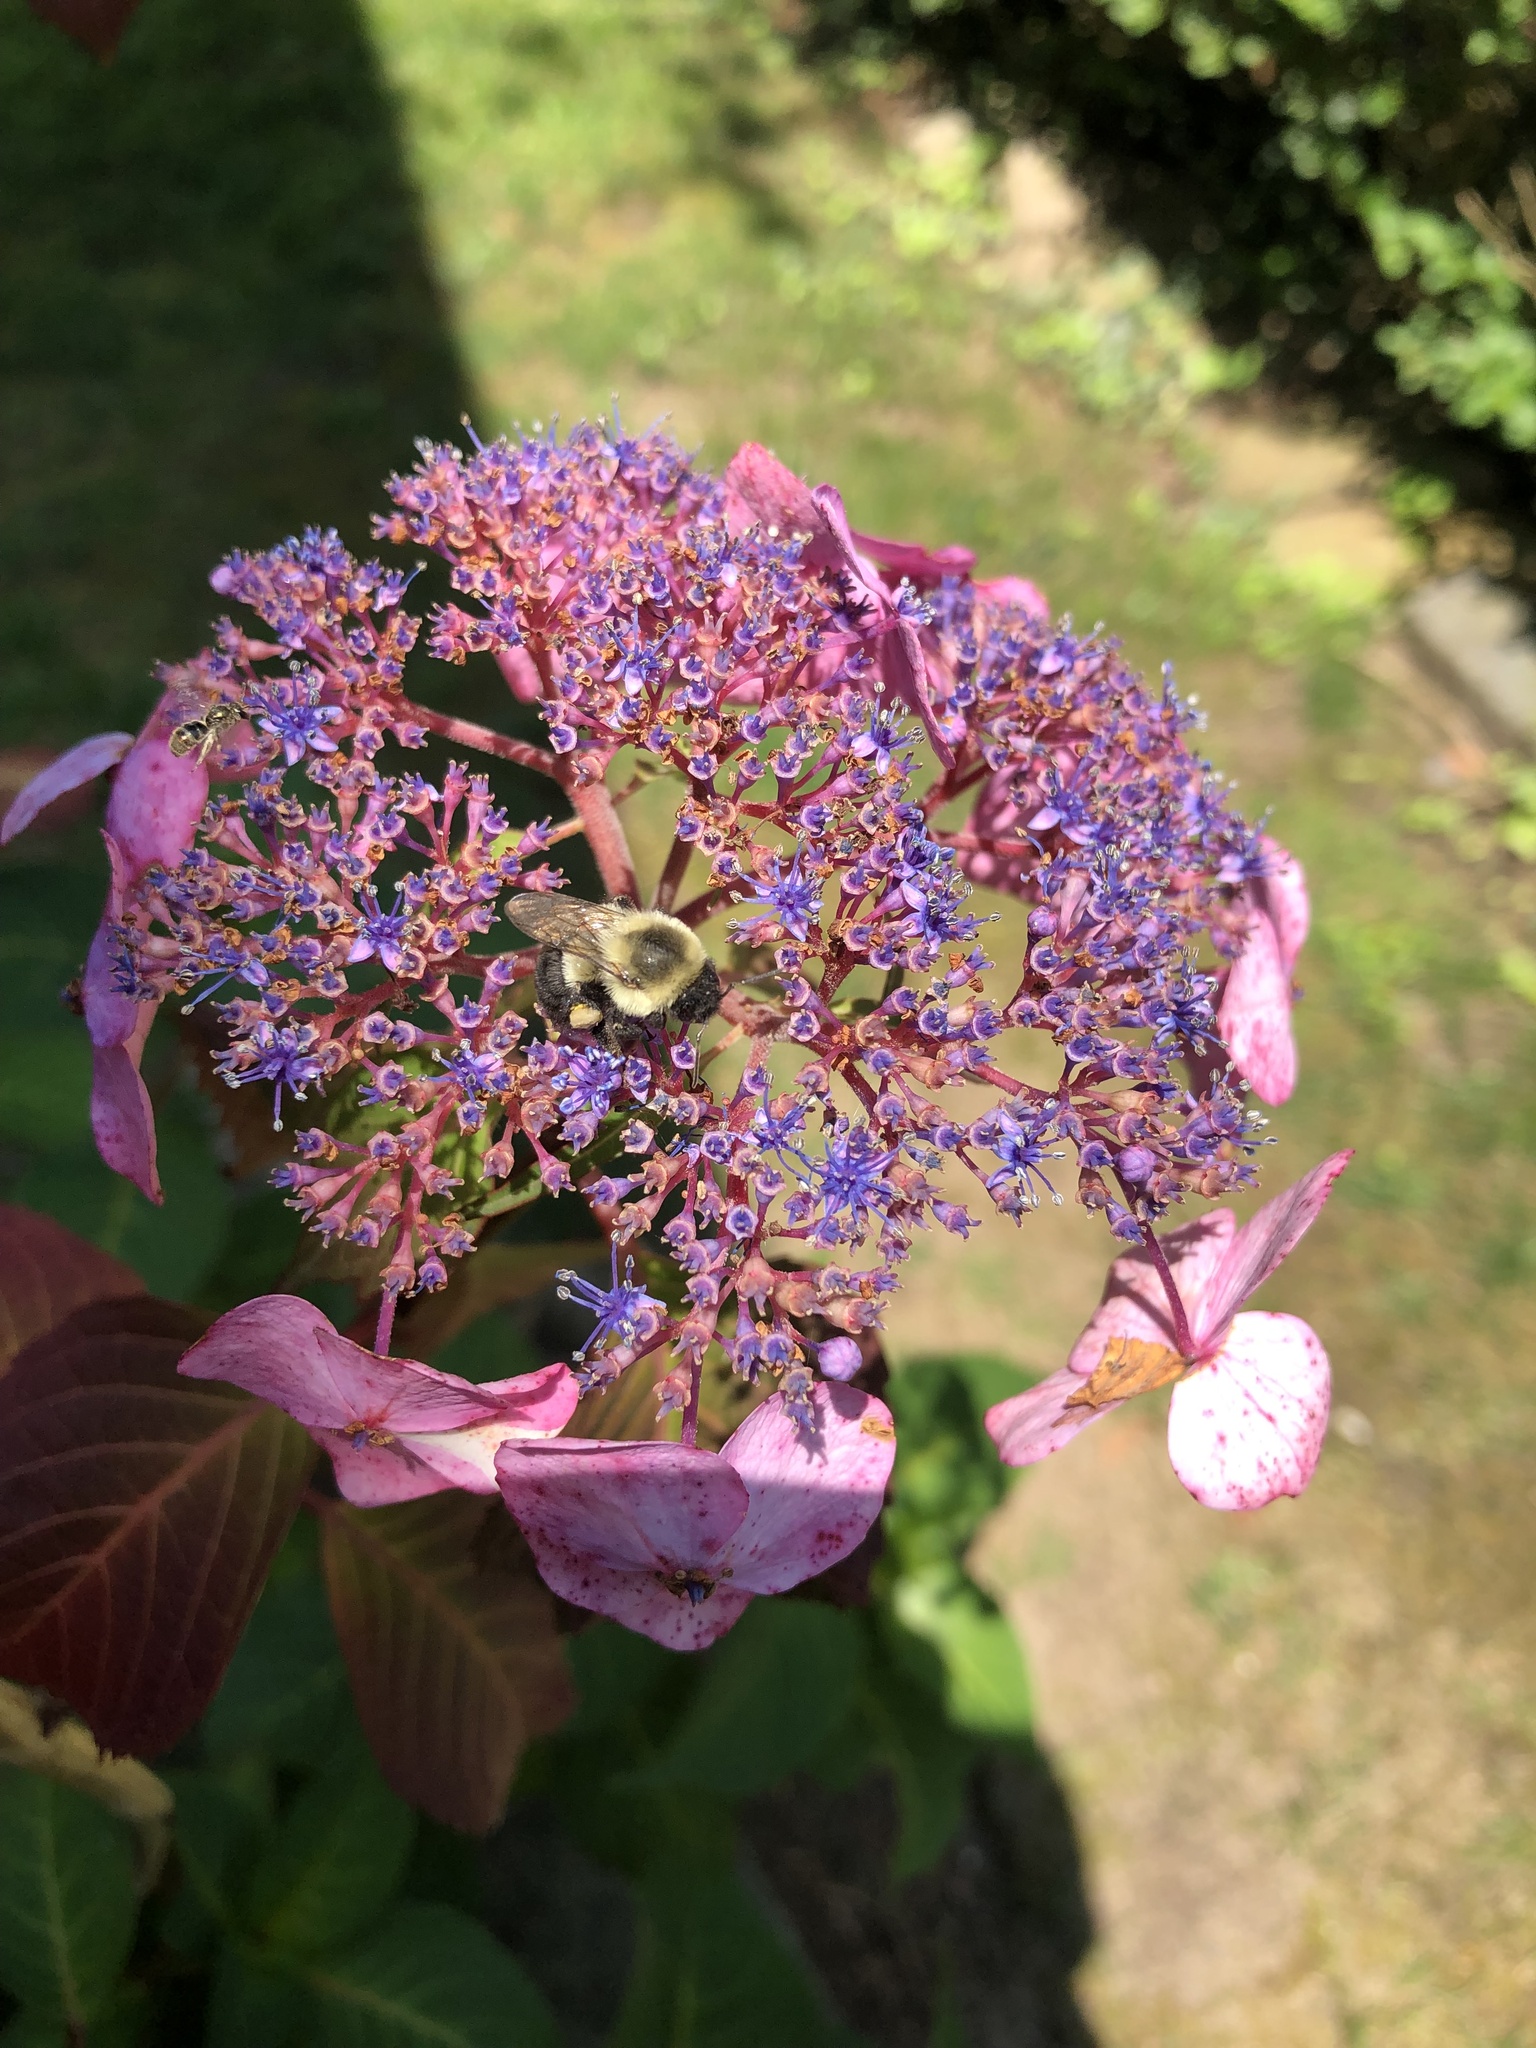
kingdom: Animalia
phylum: Arthropoda
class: Insecta
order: Hymenoptera
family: Apidae
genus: Bombus
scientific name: Bombus impatiens
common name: Common eastern bumble bee
